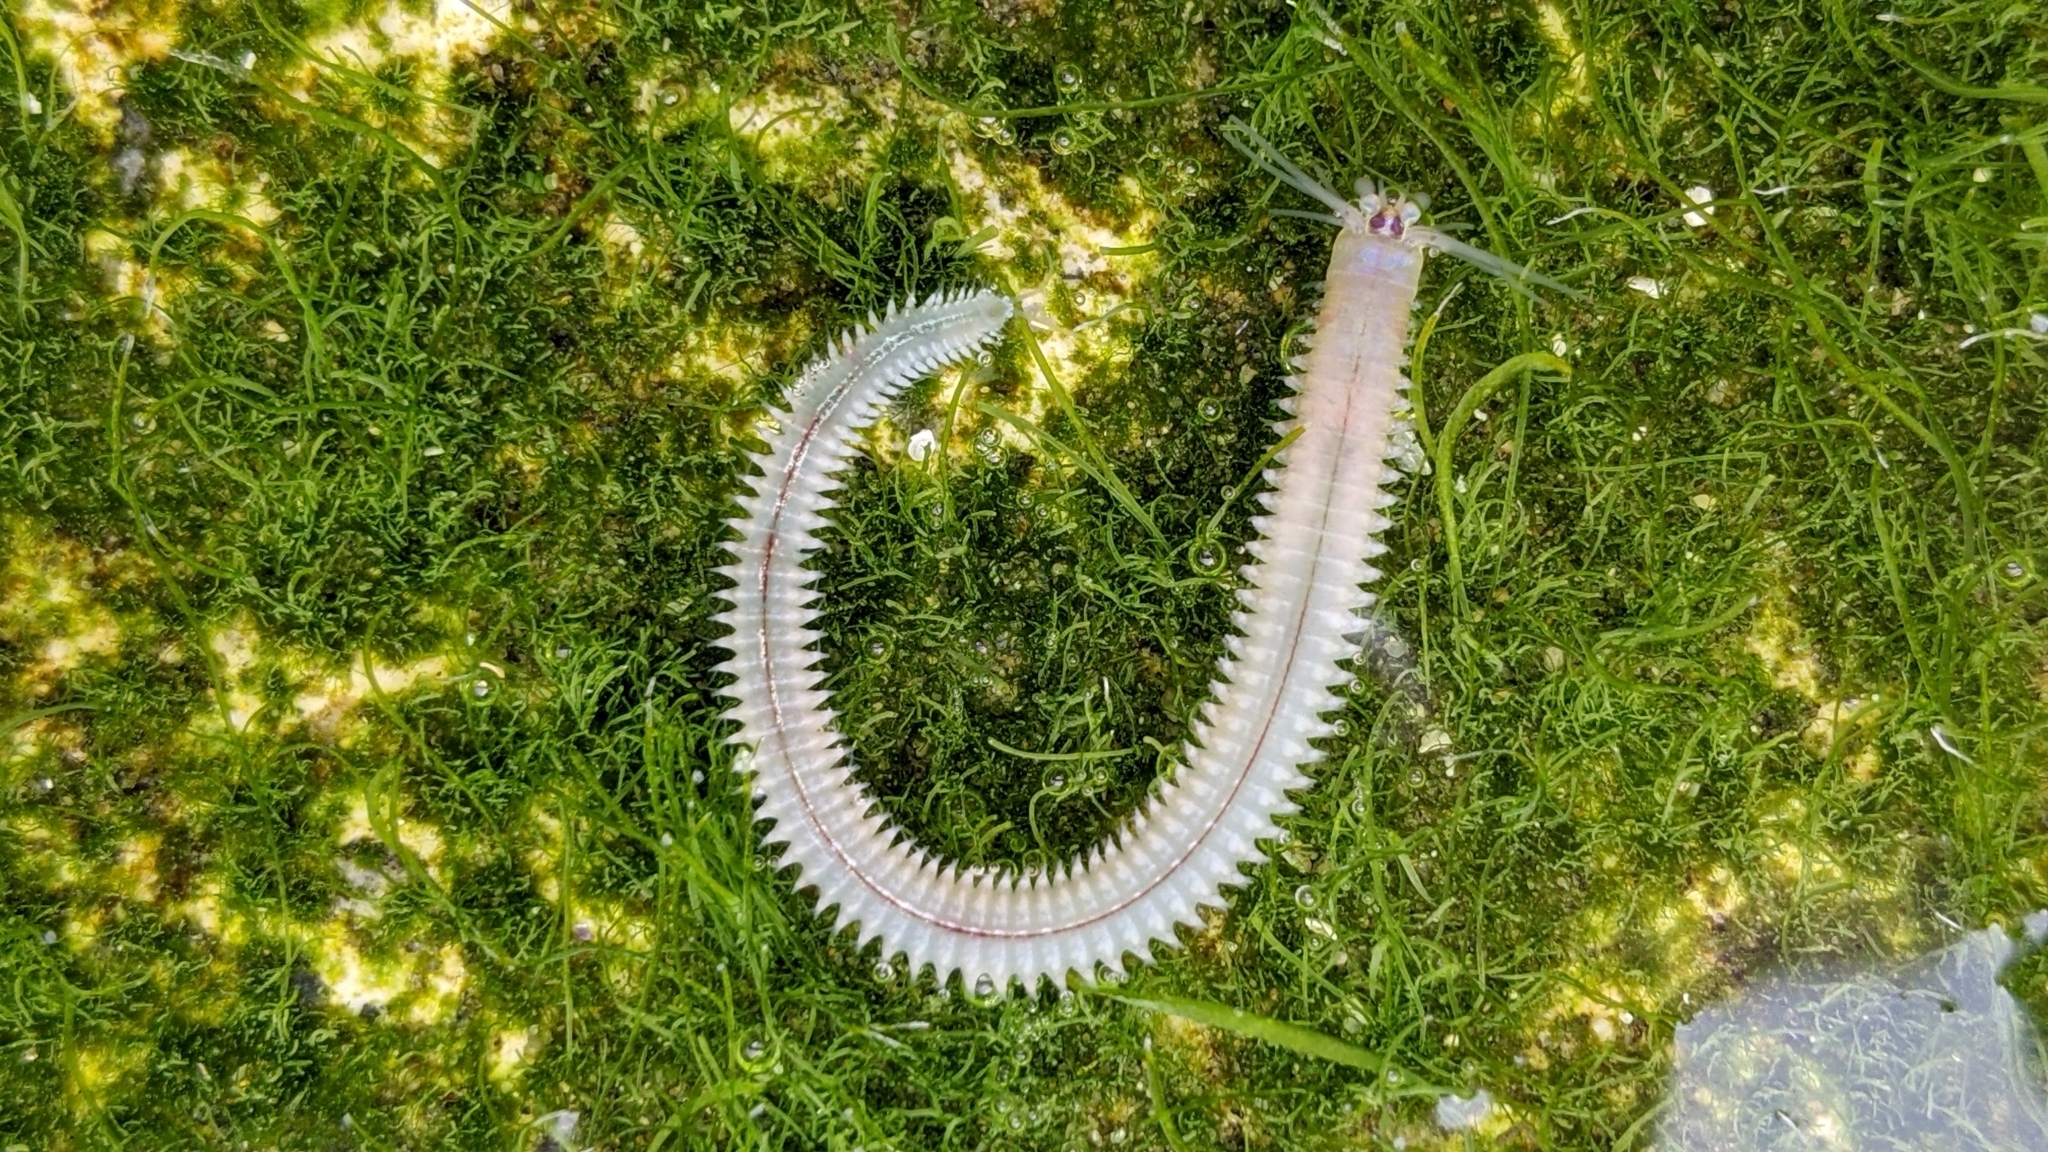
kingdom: Animalia
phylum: Annelida
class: Polychaeta
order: Phyllodocida
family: Nereididae
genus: Platynereis
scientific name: Platynereis bicanaliculata
